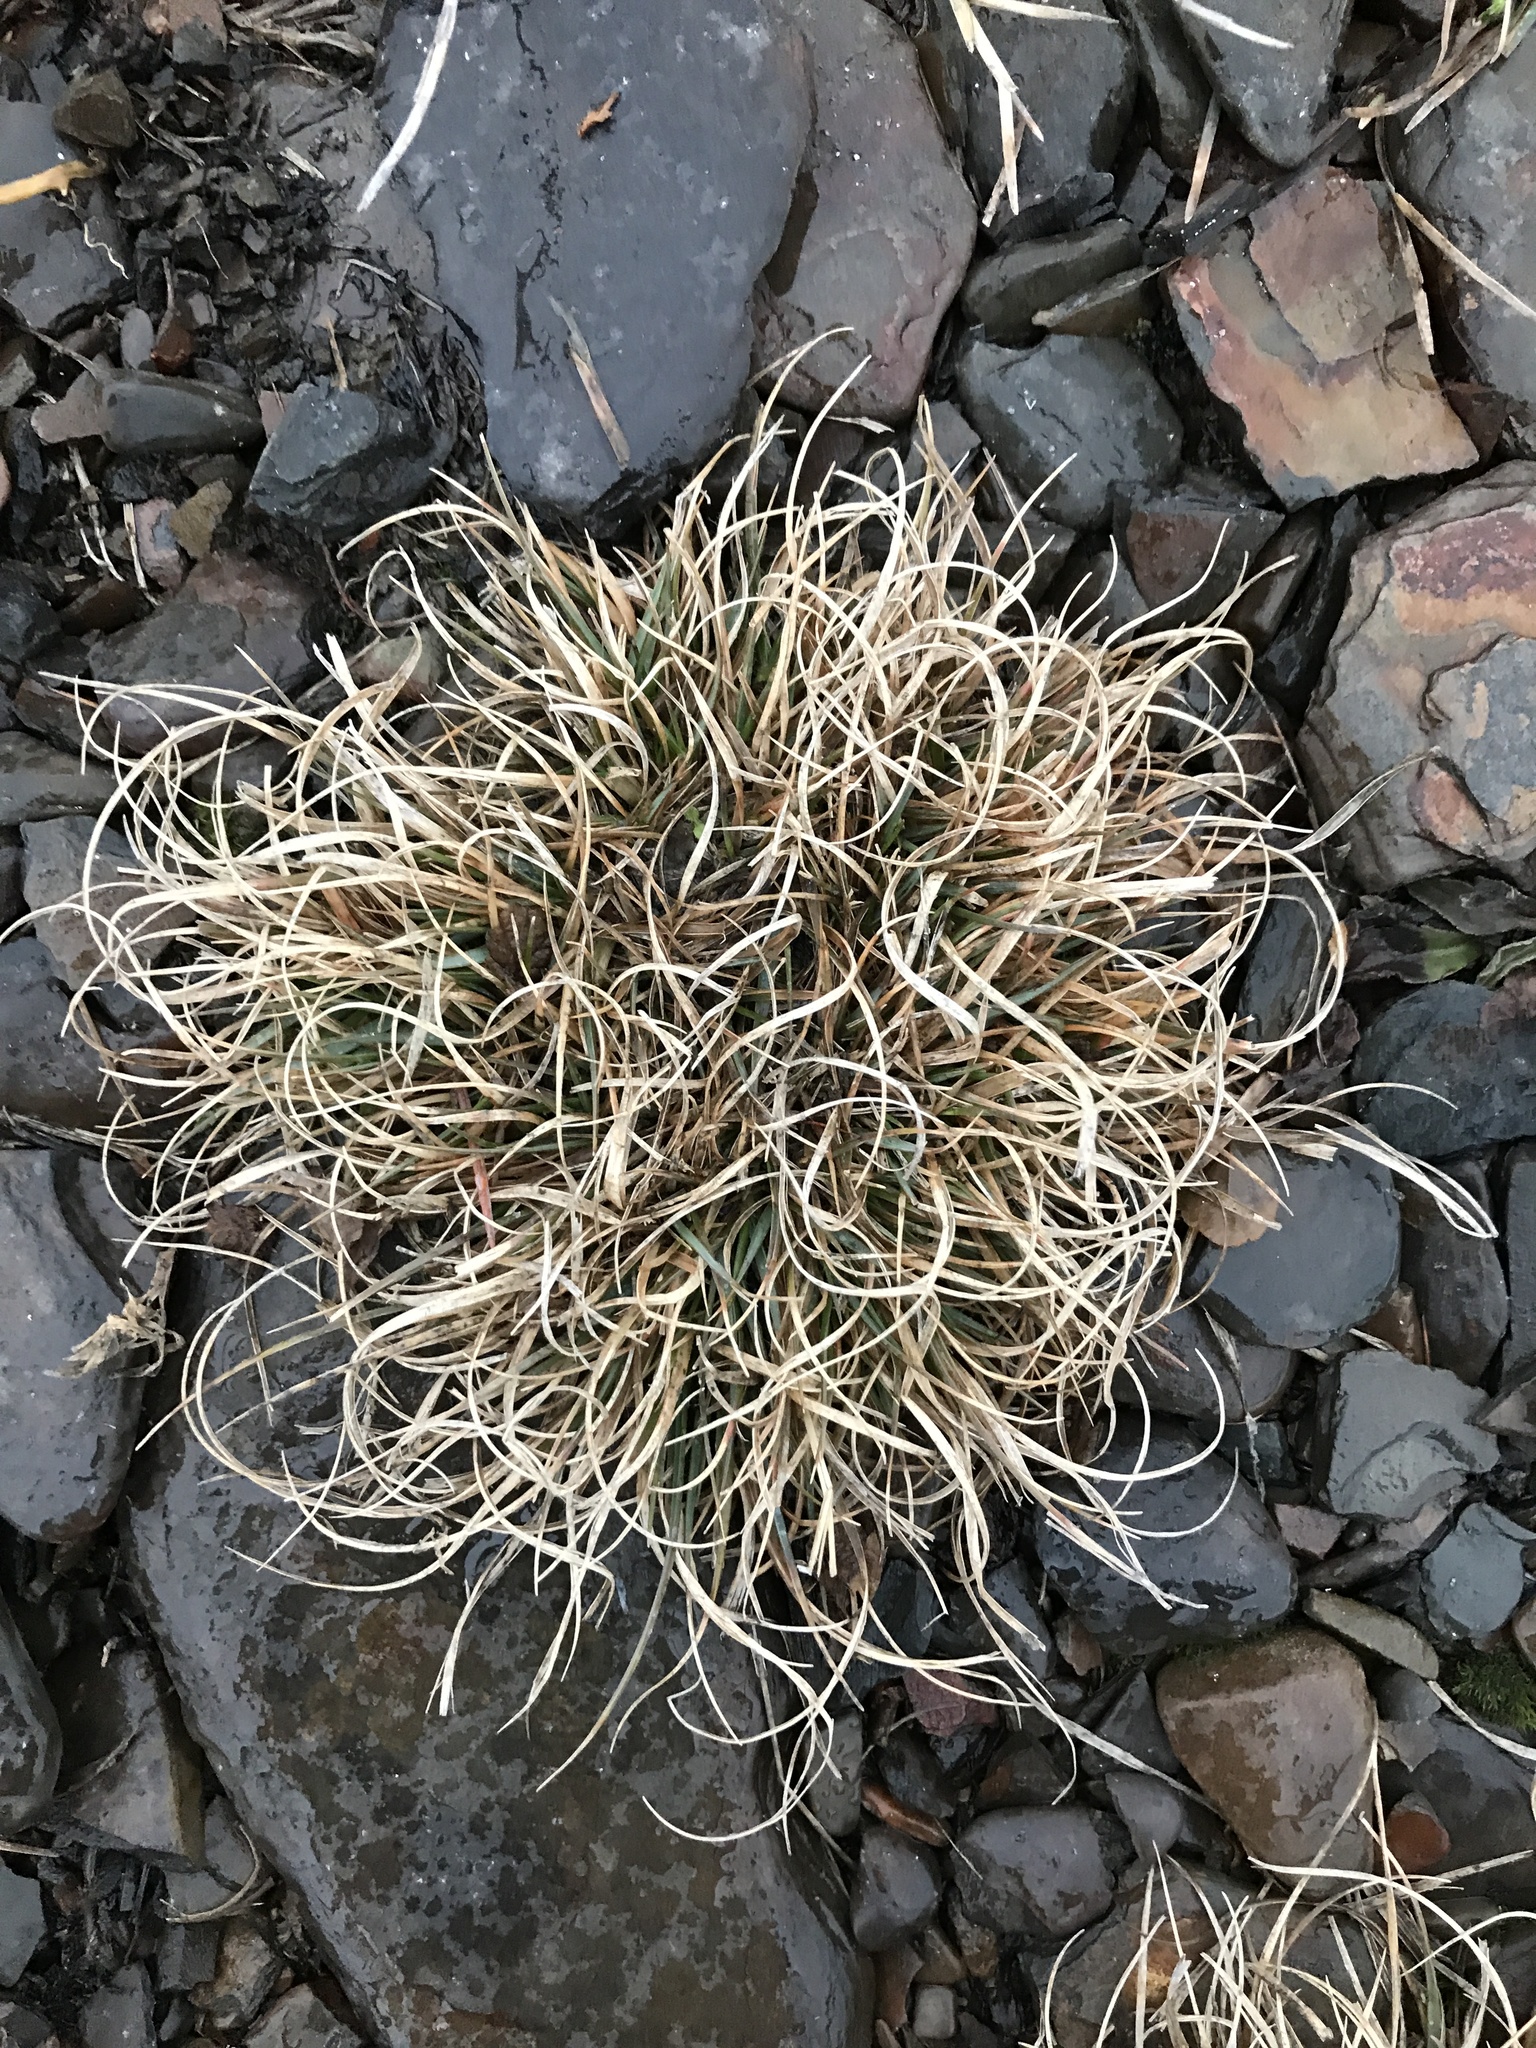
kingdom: Plantae
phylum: Tracheophyta
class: Liliopsida
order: Poales
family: Poaceae
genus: Danthonia
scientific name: Danthonia spicata
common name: Common wild oatgrass
